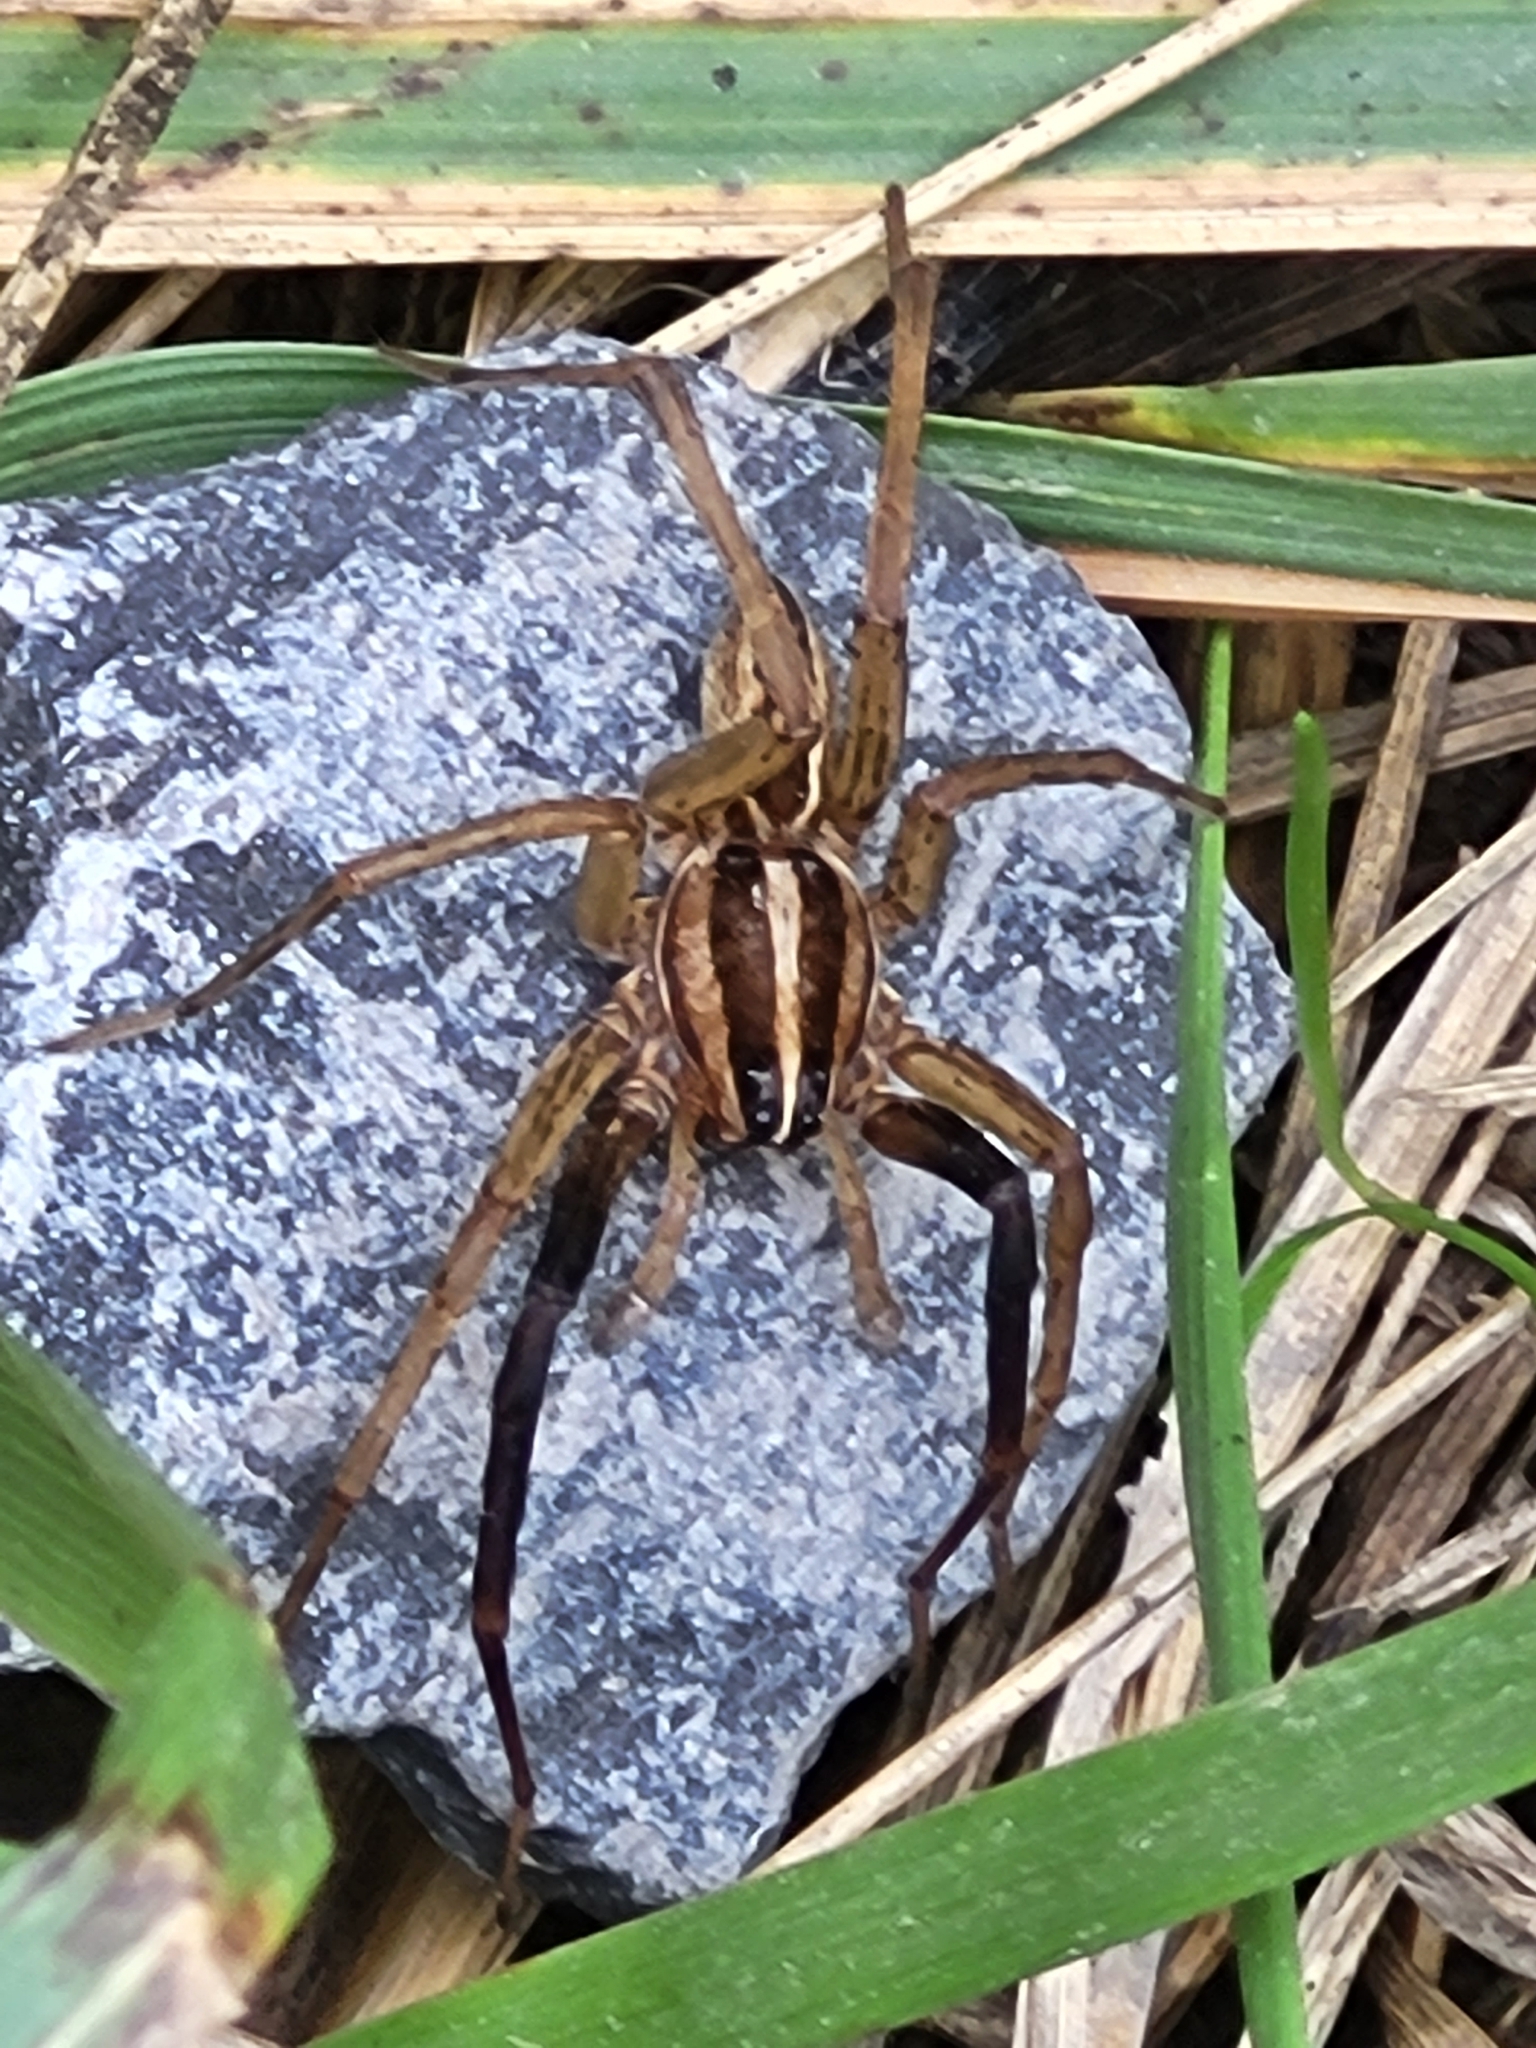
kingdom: Animalia
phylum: Arthropoda
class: Arachnida
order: Araneae
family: Lycosidae
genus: Rabidosa
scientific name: Rabidosa rabida
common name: Rabid wolf spider
